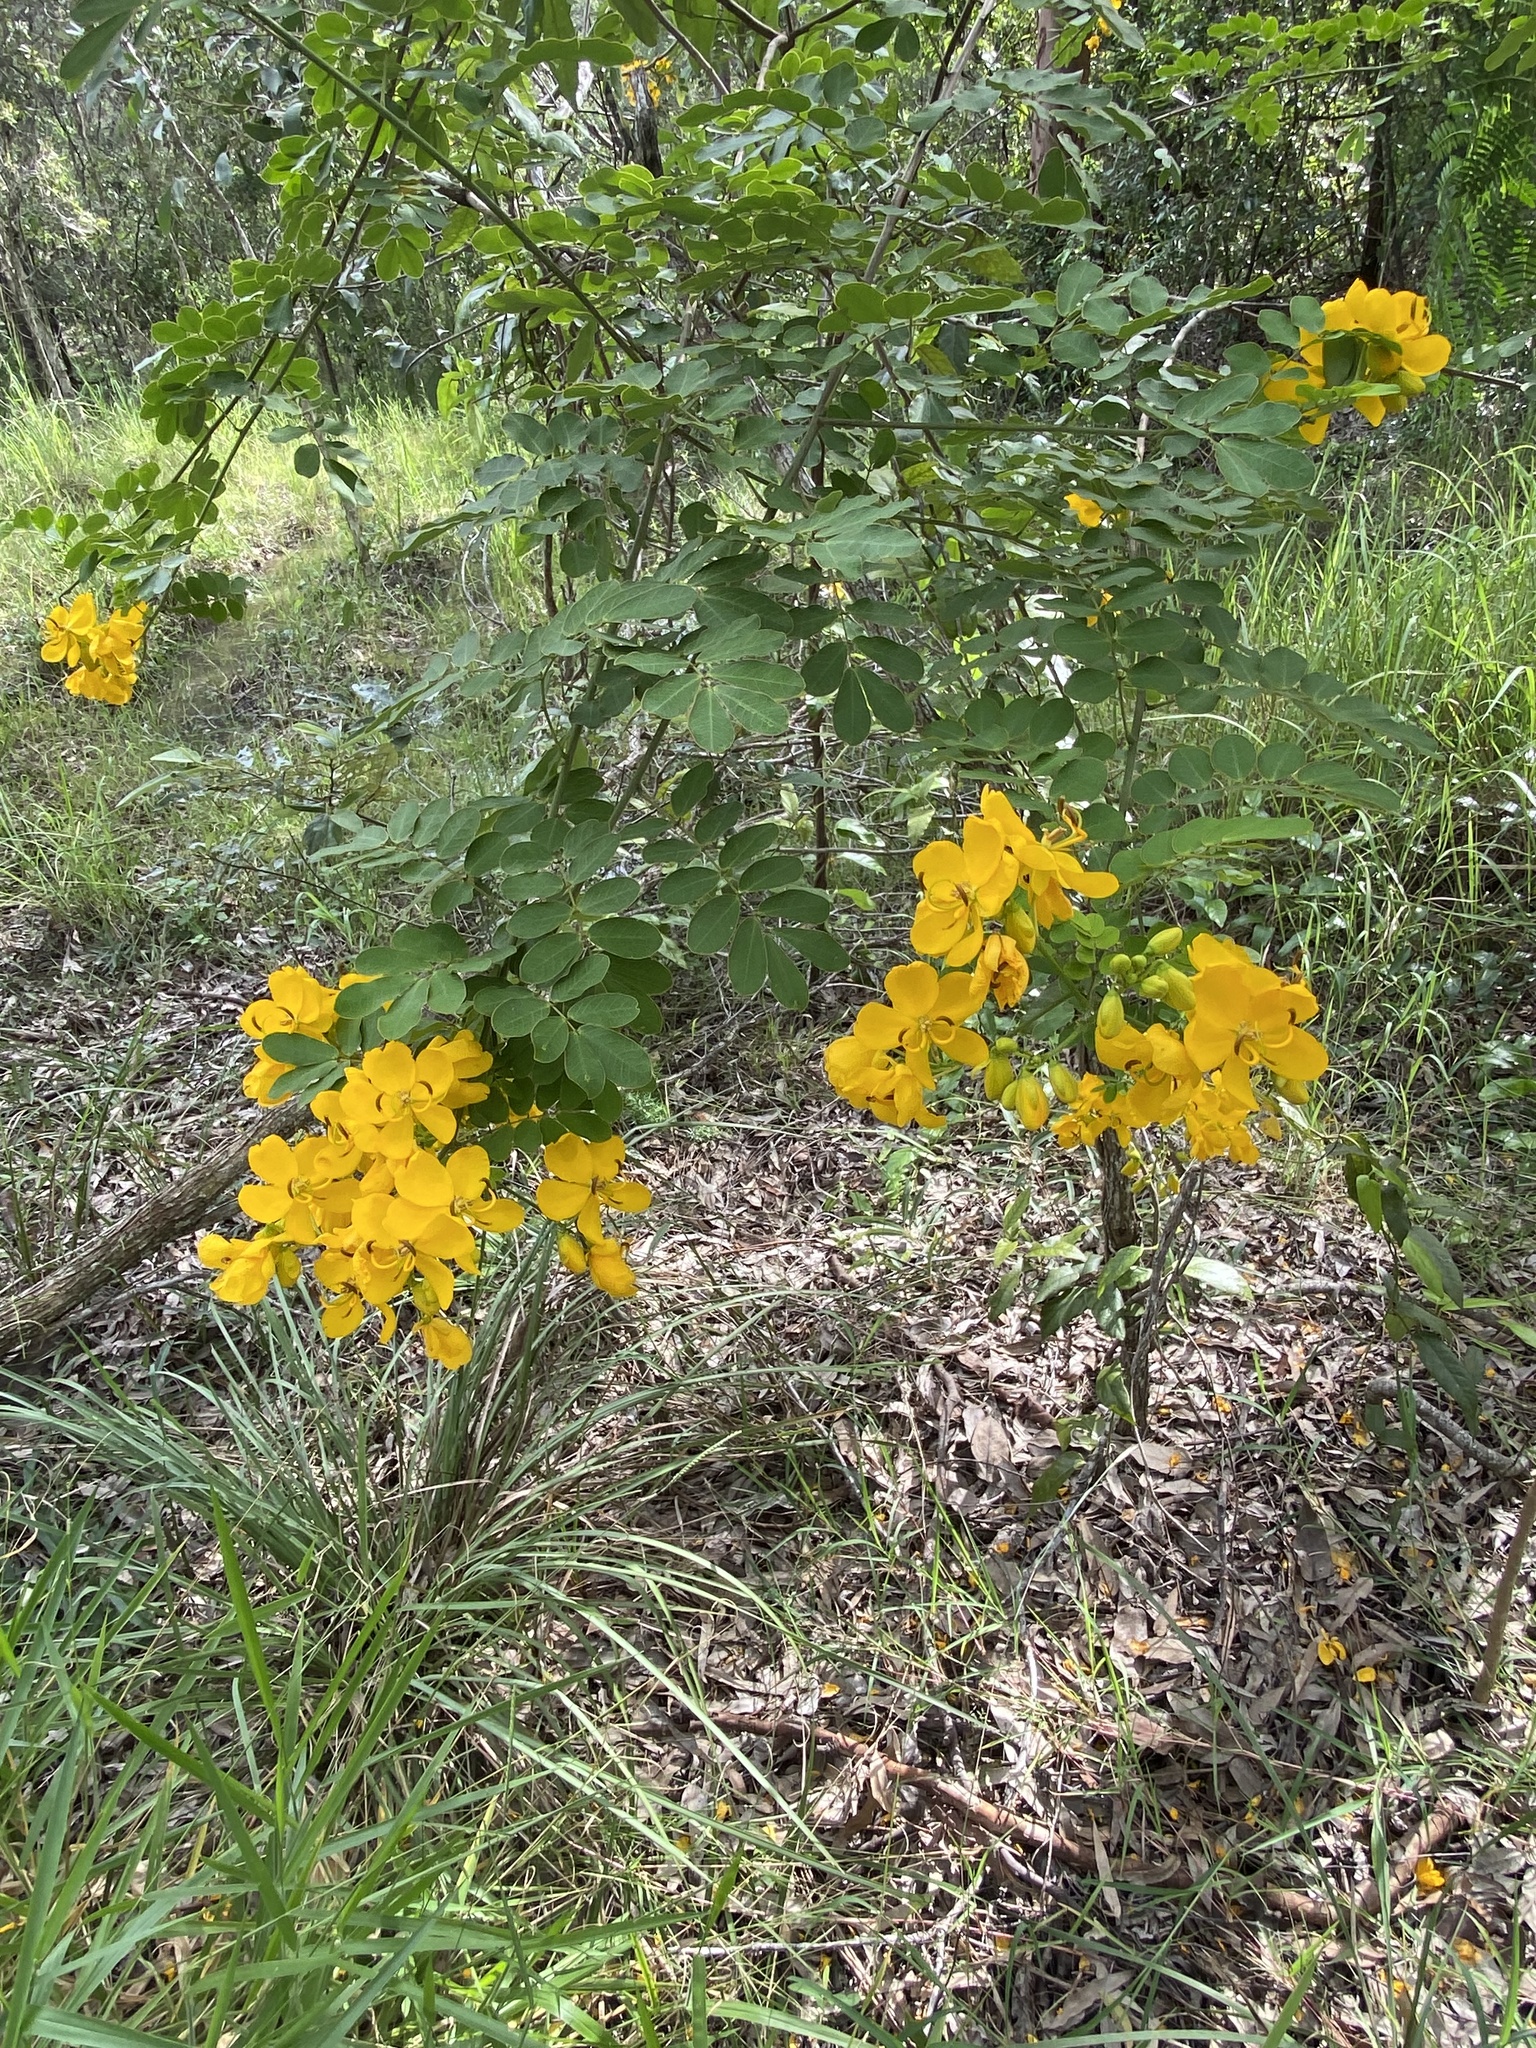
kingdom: Plantae
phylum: Tracheophyta
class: Magnoliopsida
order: Fabales
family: Fabaceae
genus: Senna
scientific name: Senna pendula
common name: Easter cassia
